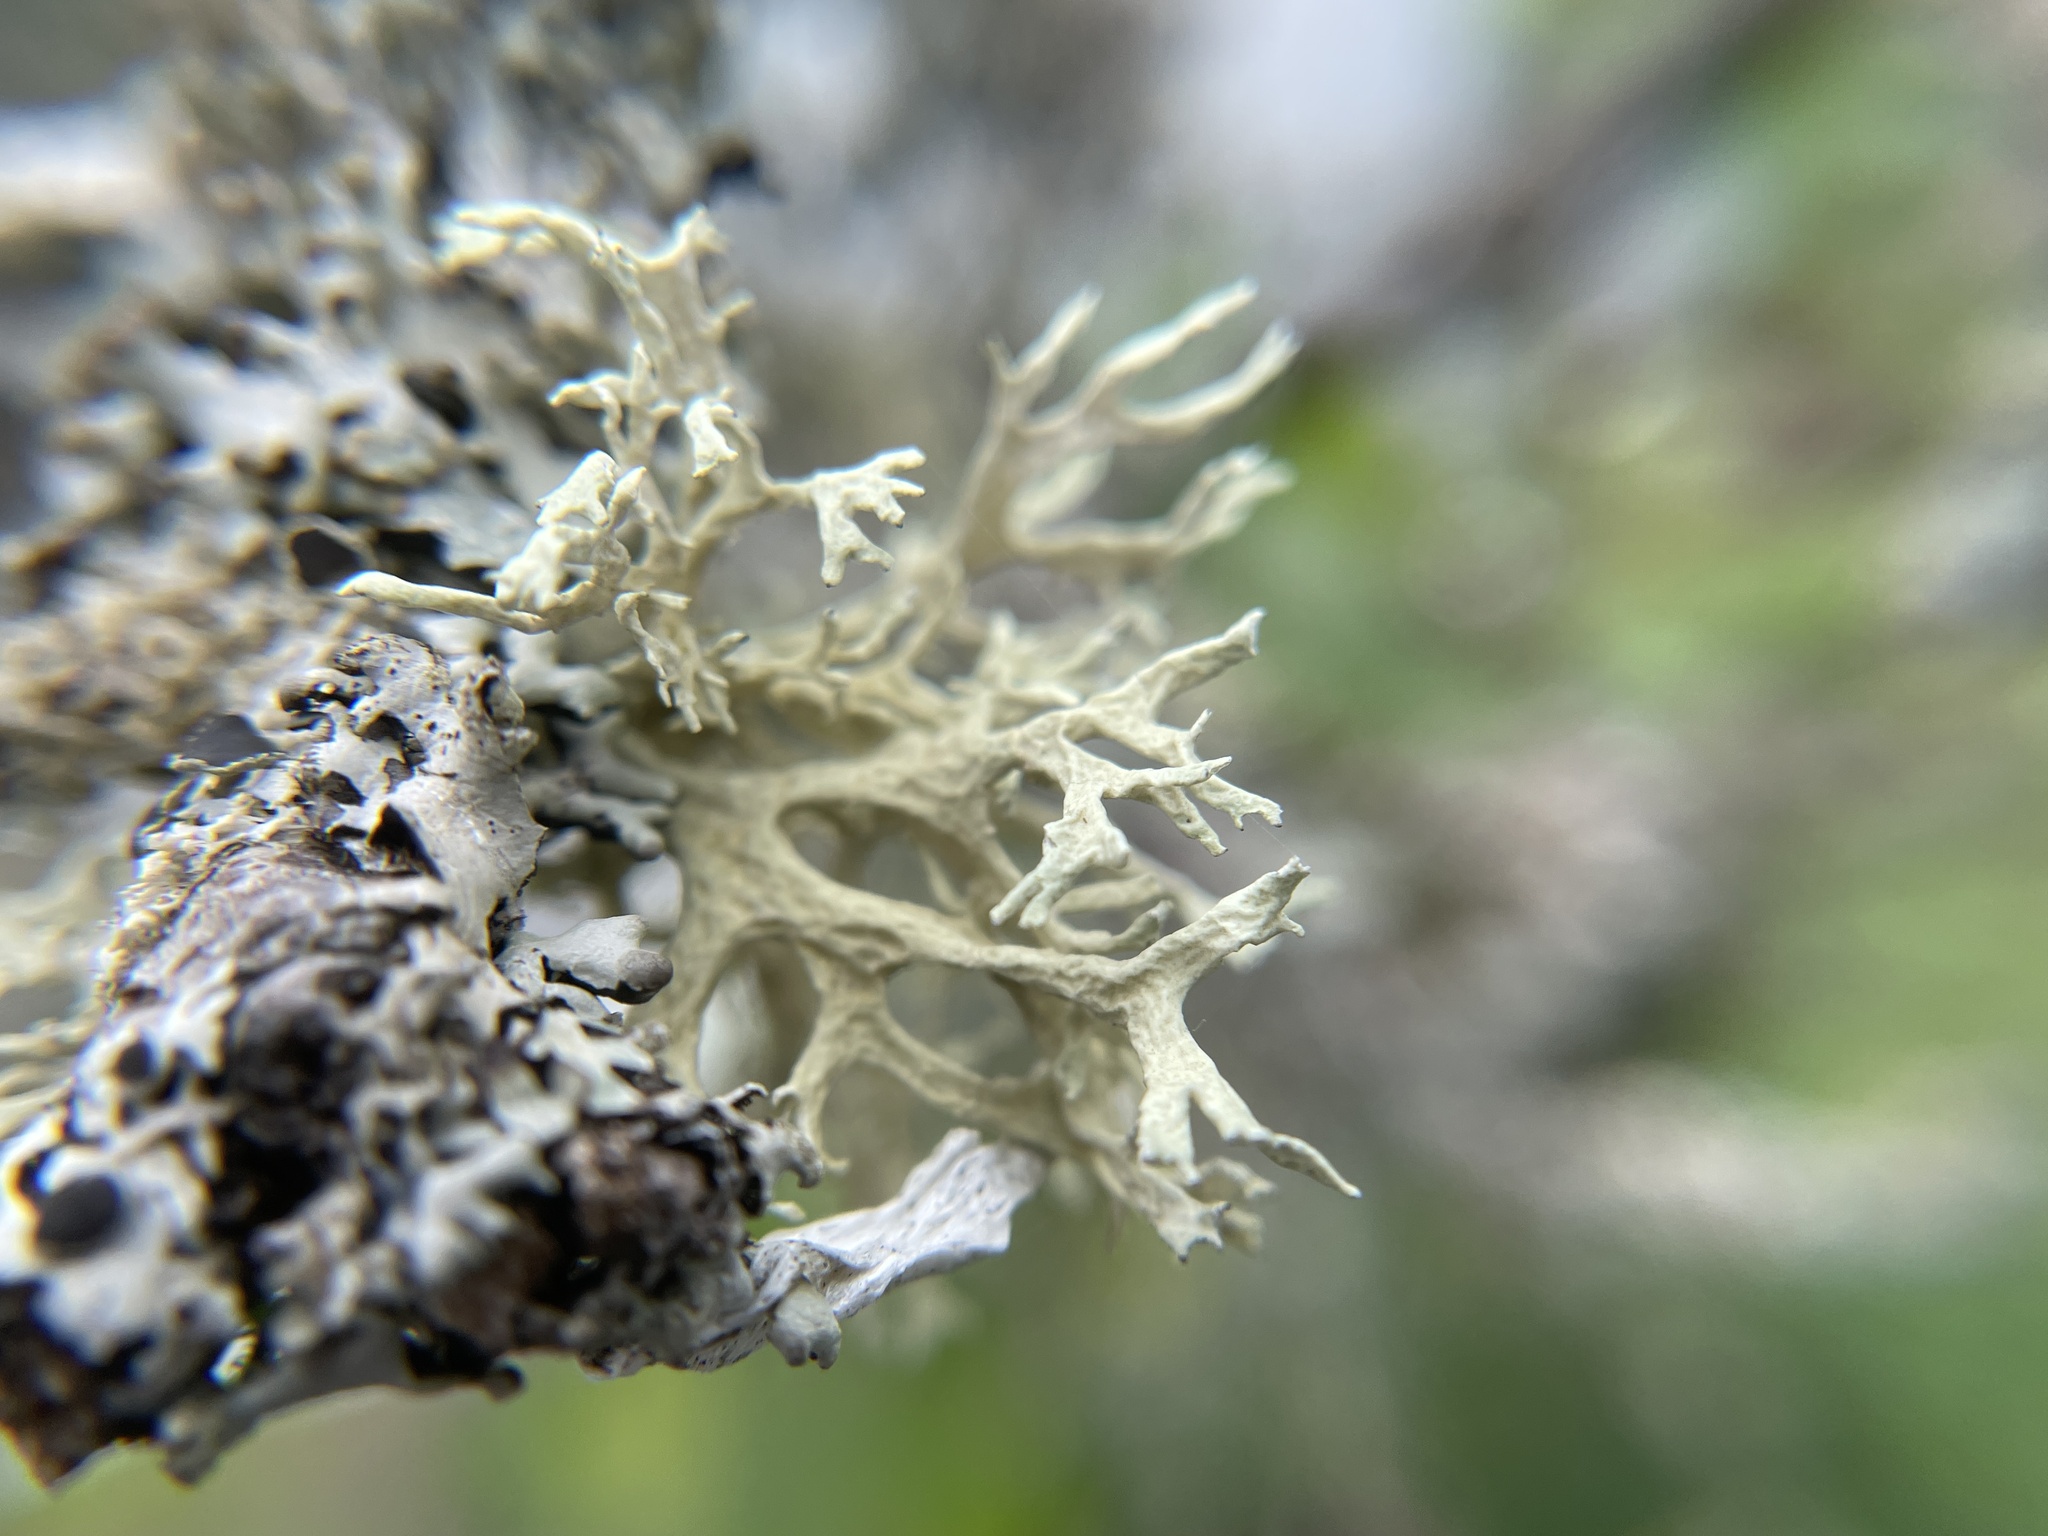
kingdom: Fungi
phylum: Ascomycota
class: Lecanoromycetes
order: Lecanorales
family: Parmeliaceae
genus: Evernia
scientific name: Evernia prunastri
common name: Oak moss
